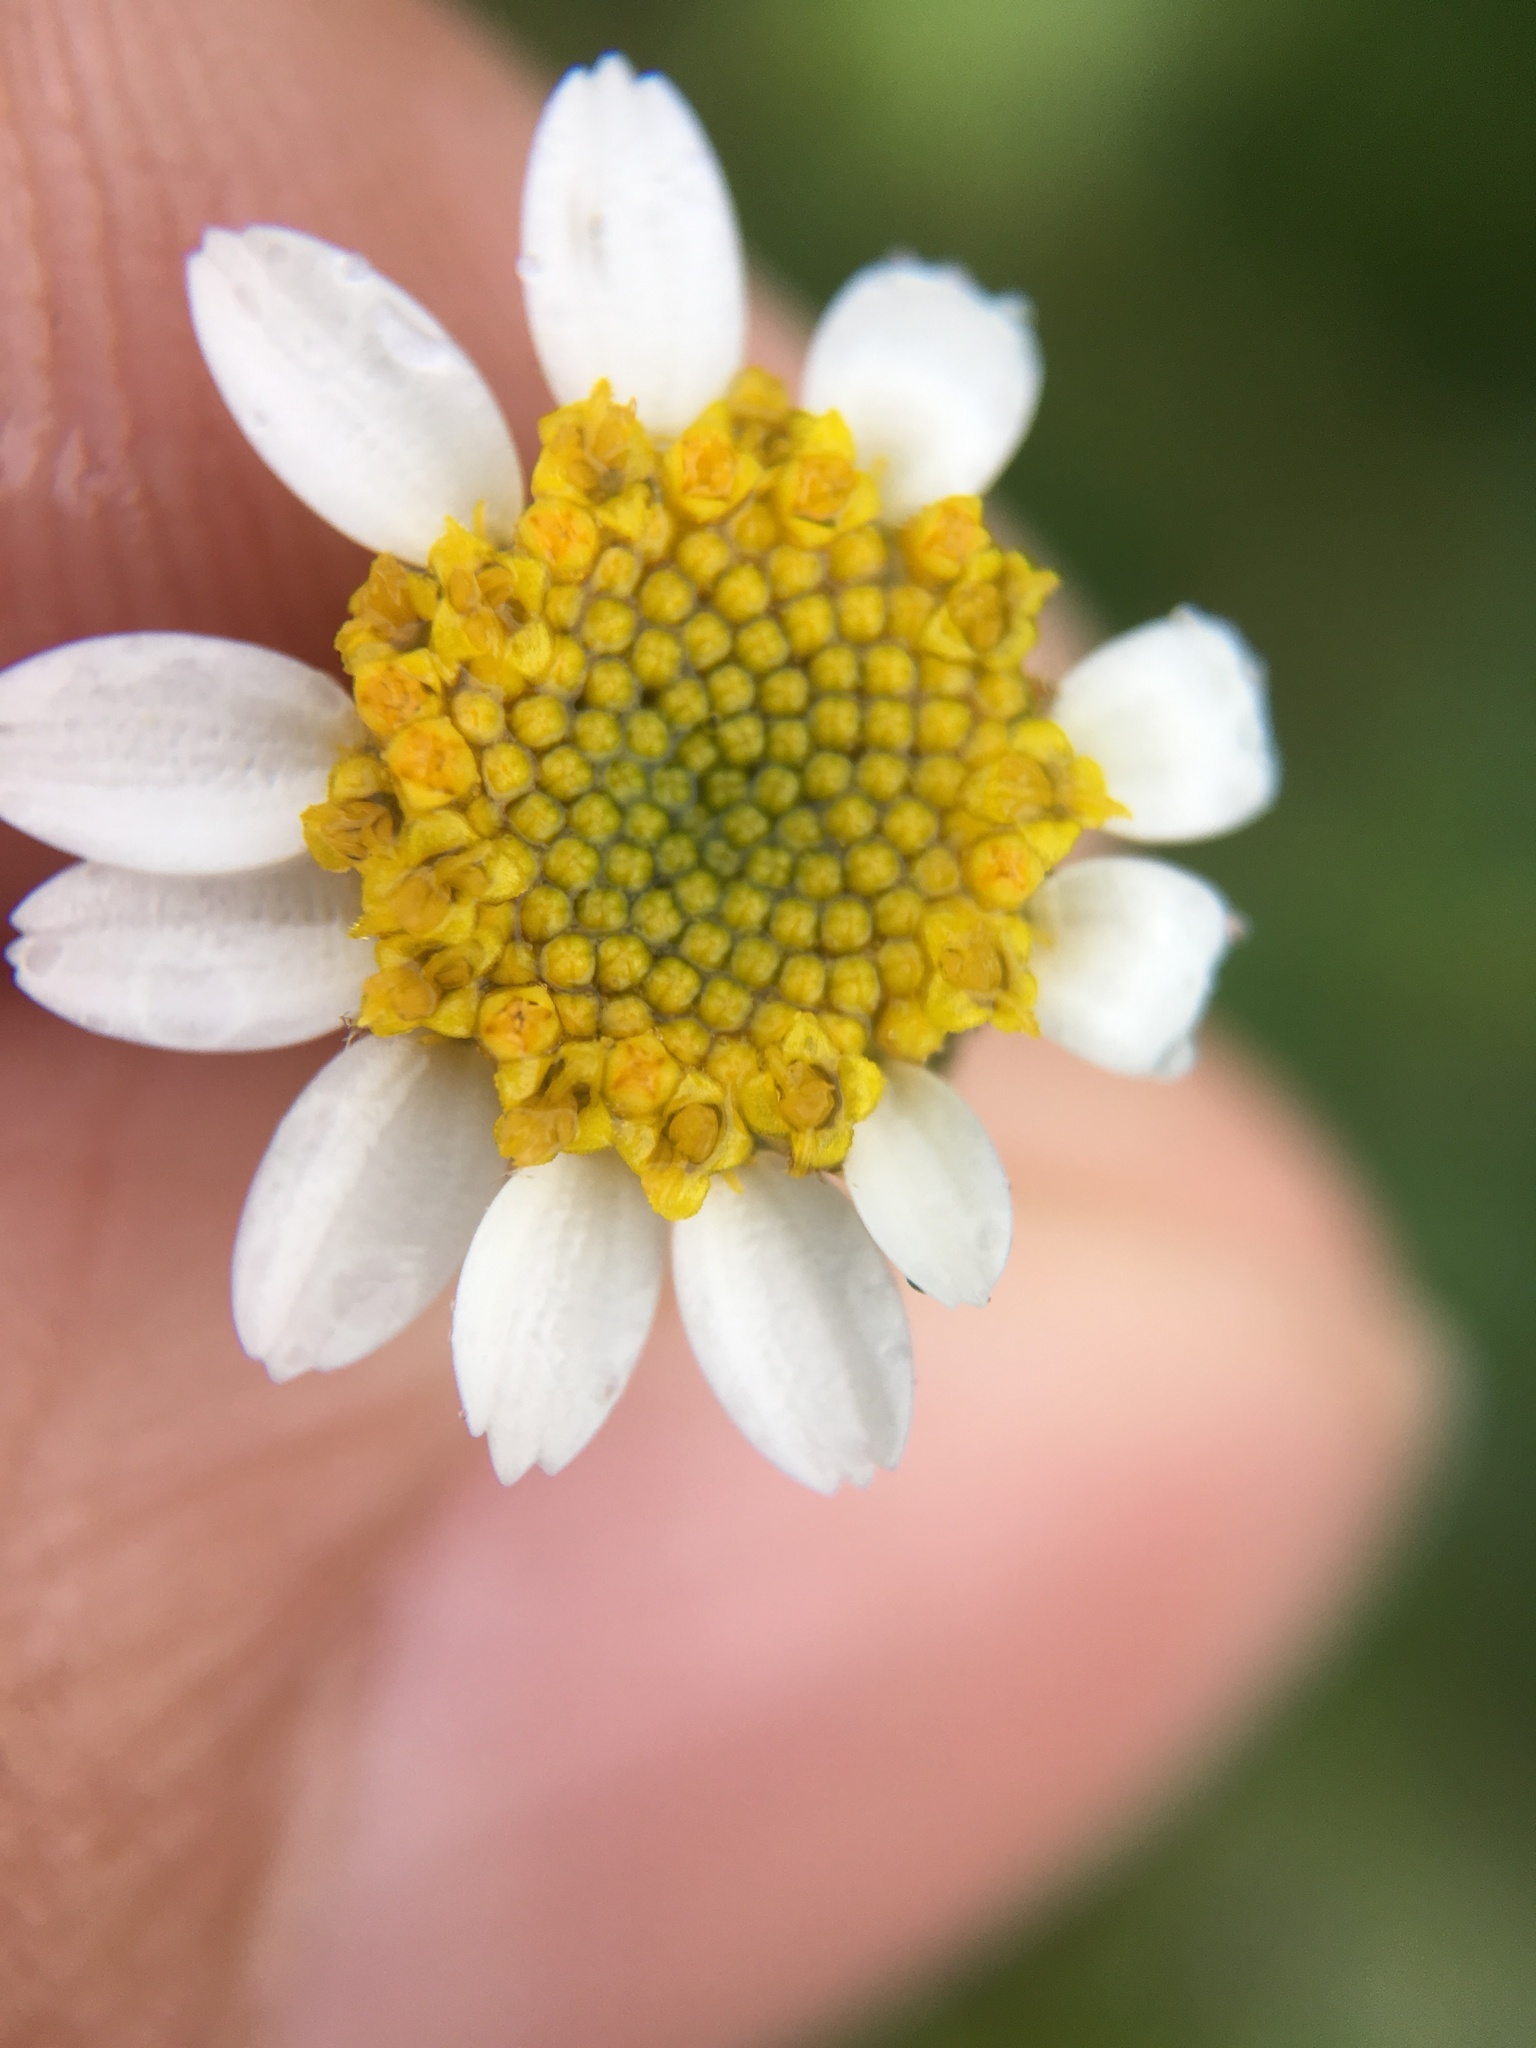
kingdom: Plantae
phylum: Tracheophyta
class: Magnoliopsida
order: Asterales
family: Asteraceae
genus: Laphamia
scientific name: Laphamia emoryi
